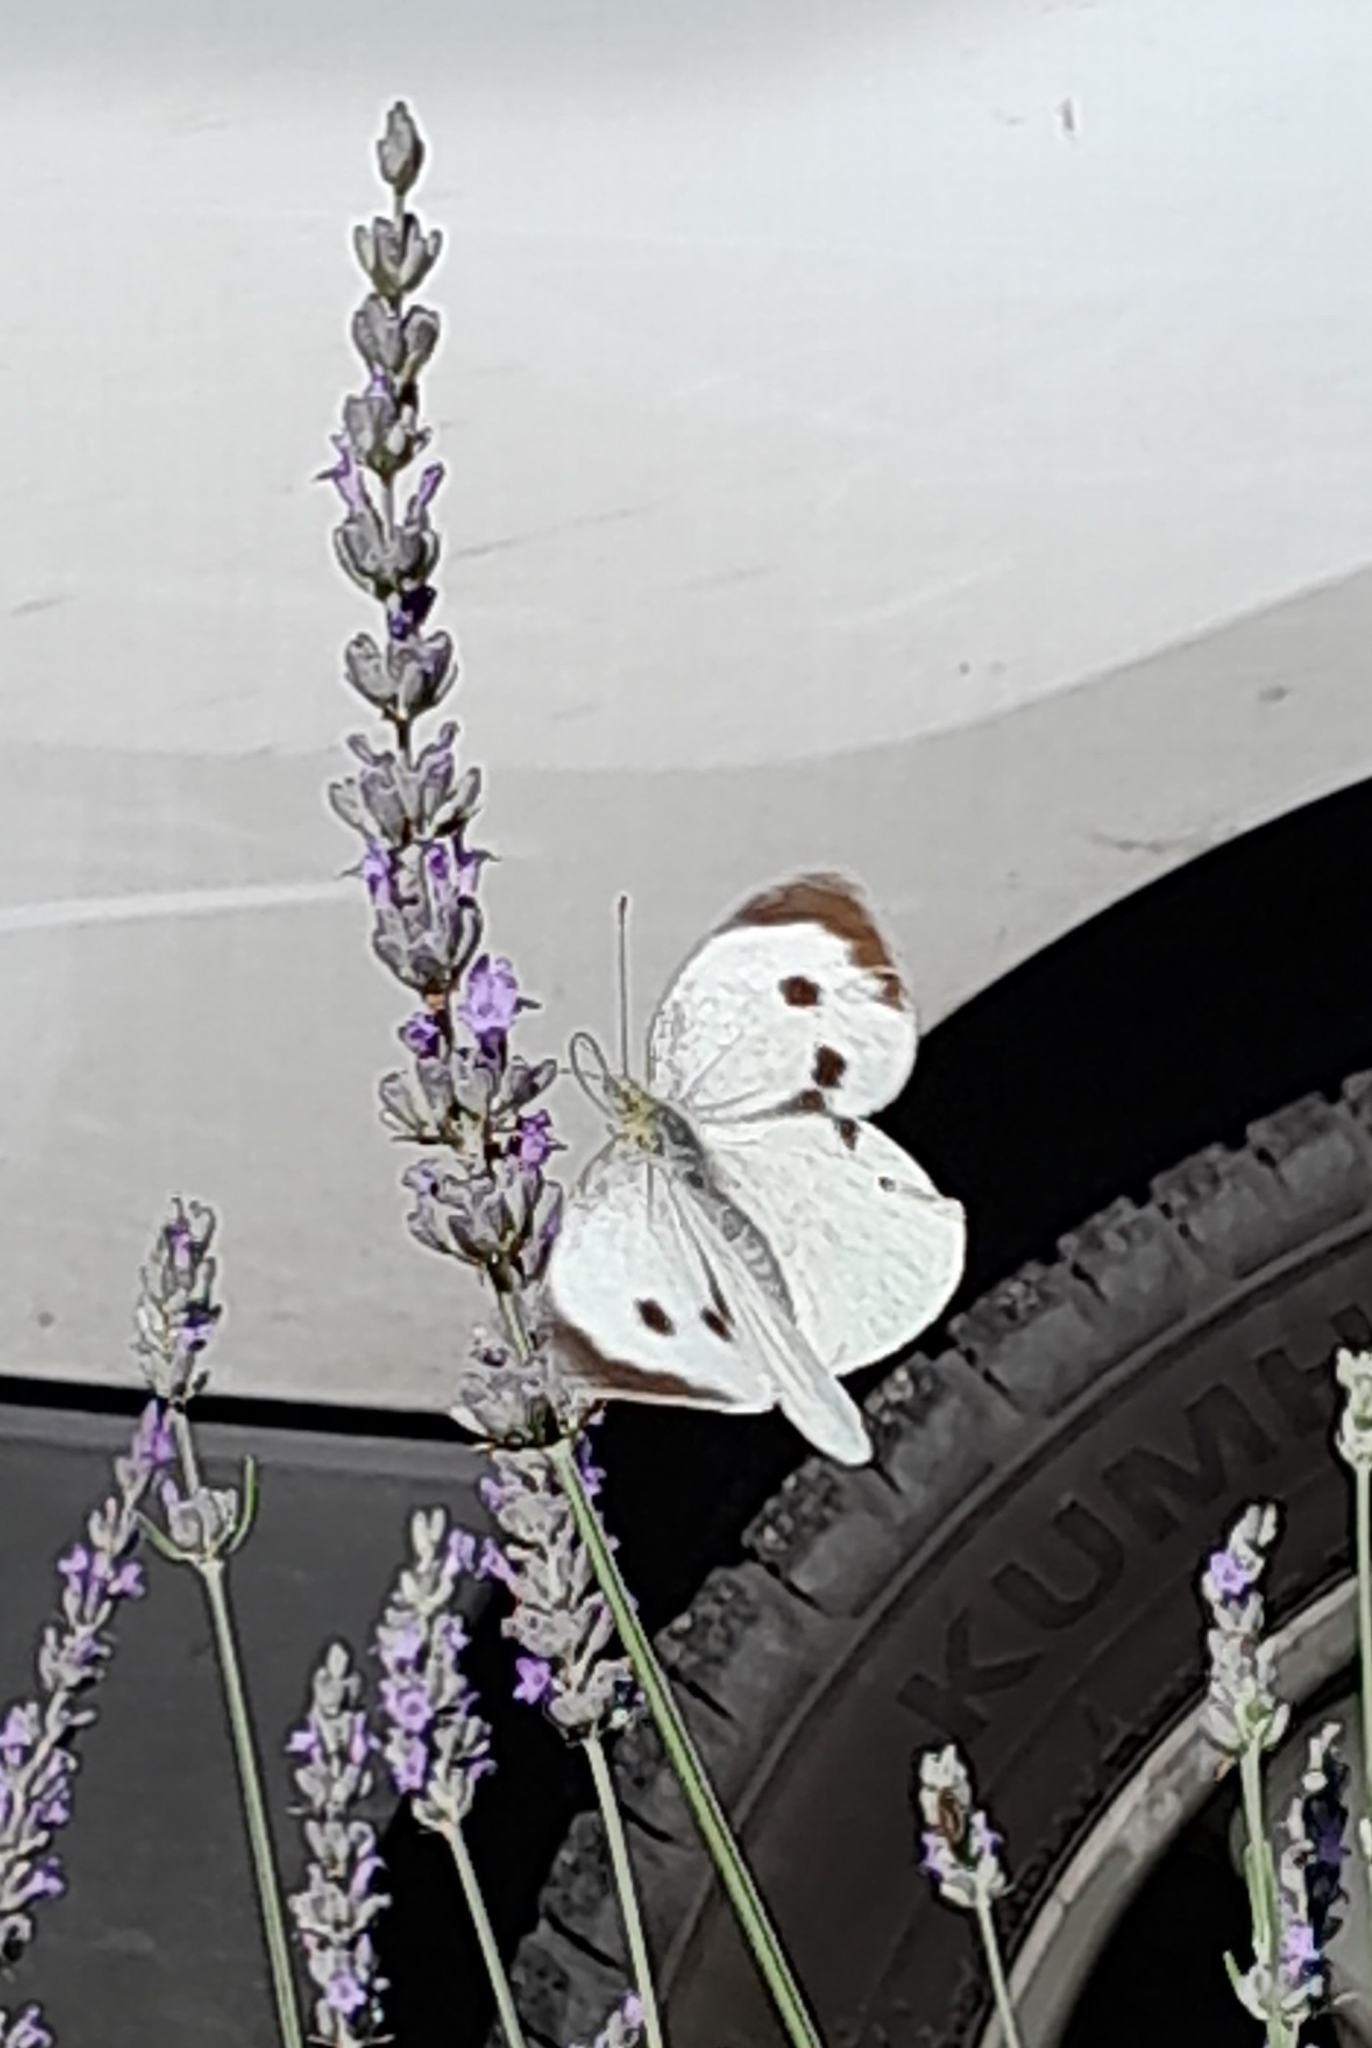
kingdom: Animalia
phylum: Arthropoda
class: Insecta
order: Lepidoptera
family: Pieridae
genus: Pieris
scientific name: Pieris brassicae
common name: Large white
